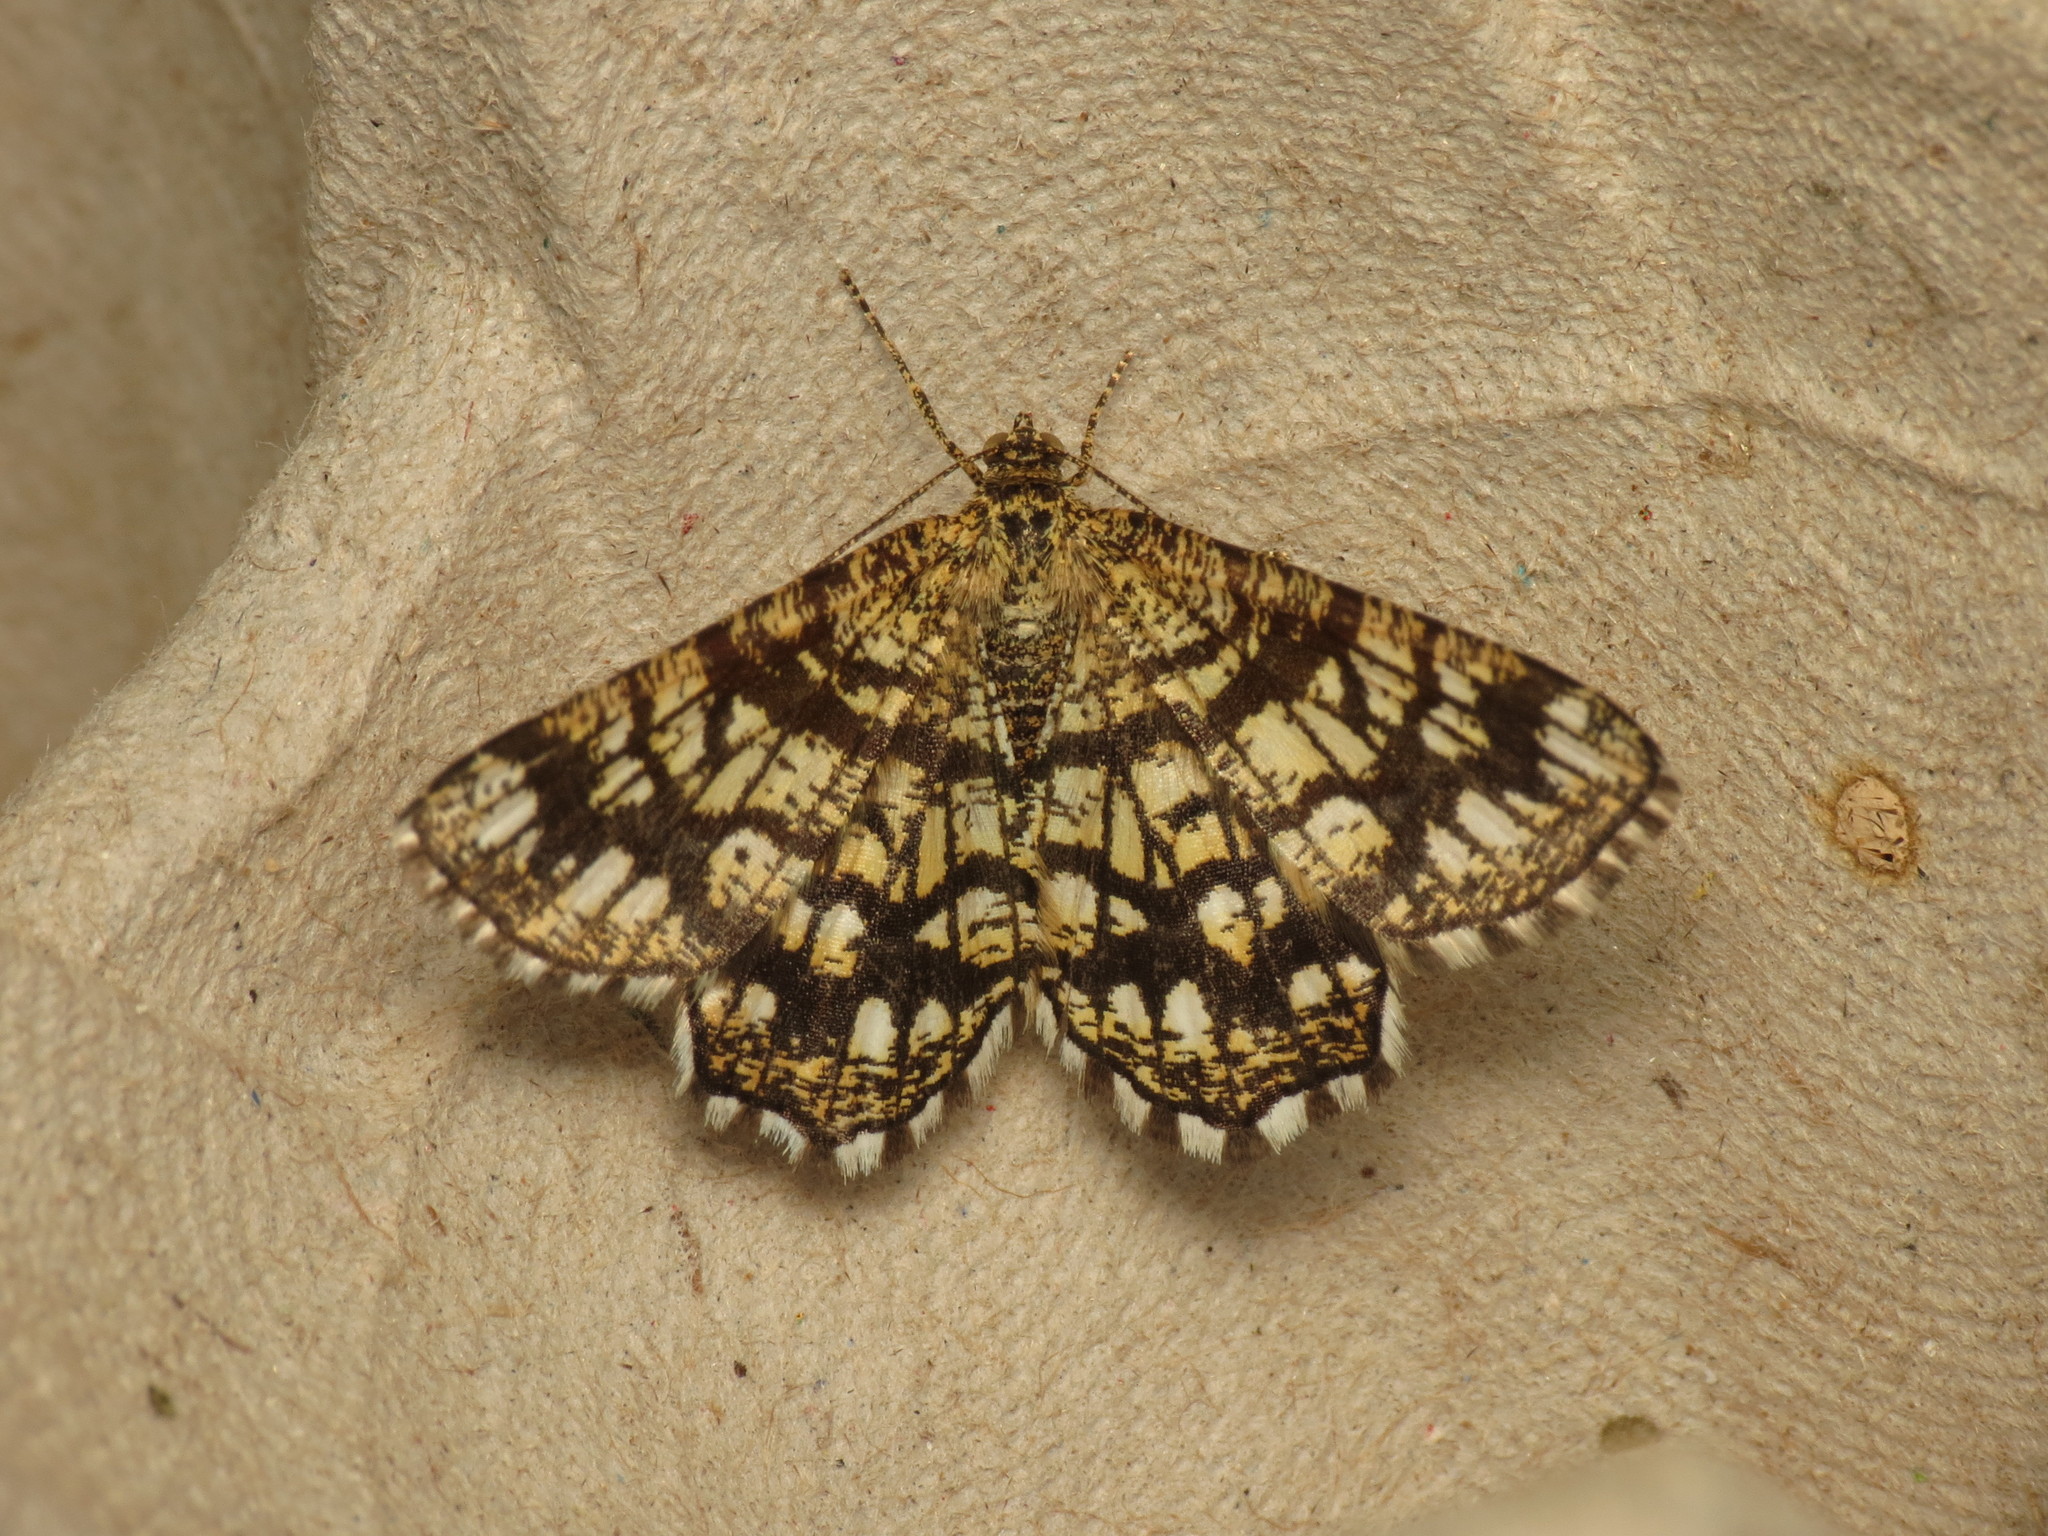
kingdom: Animalia
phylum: Arthropoda
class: Insecta
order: Lepidoptera
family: Geometridae
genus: Chiasmia
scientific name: Chiasmia clathrata
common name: Latticed heath
